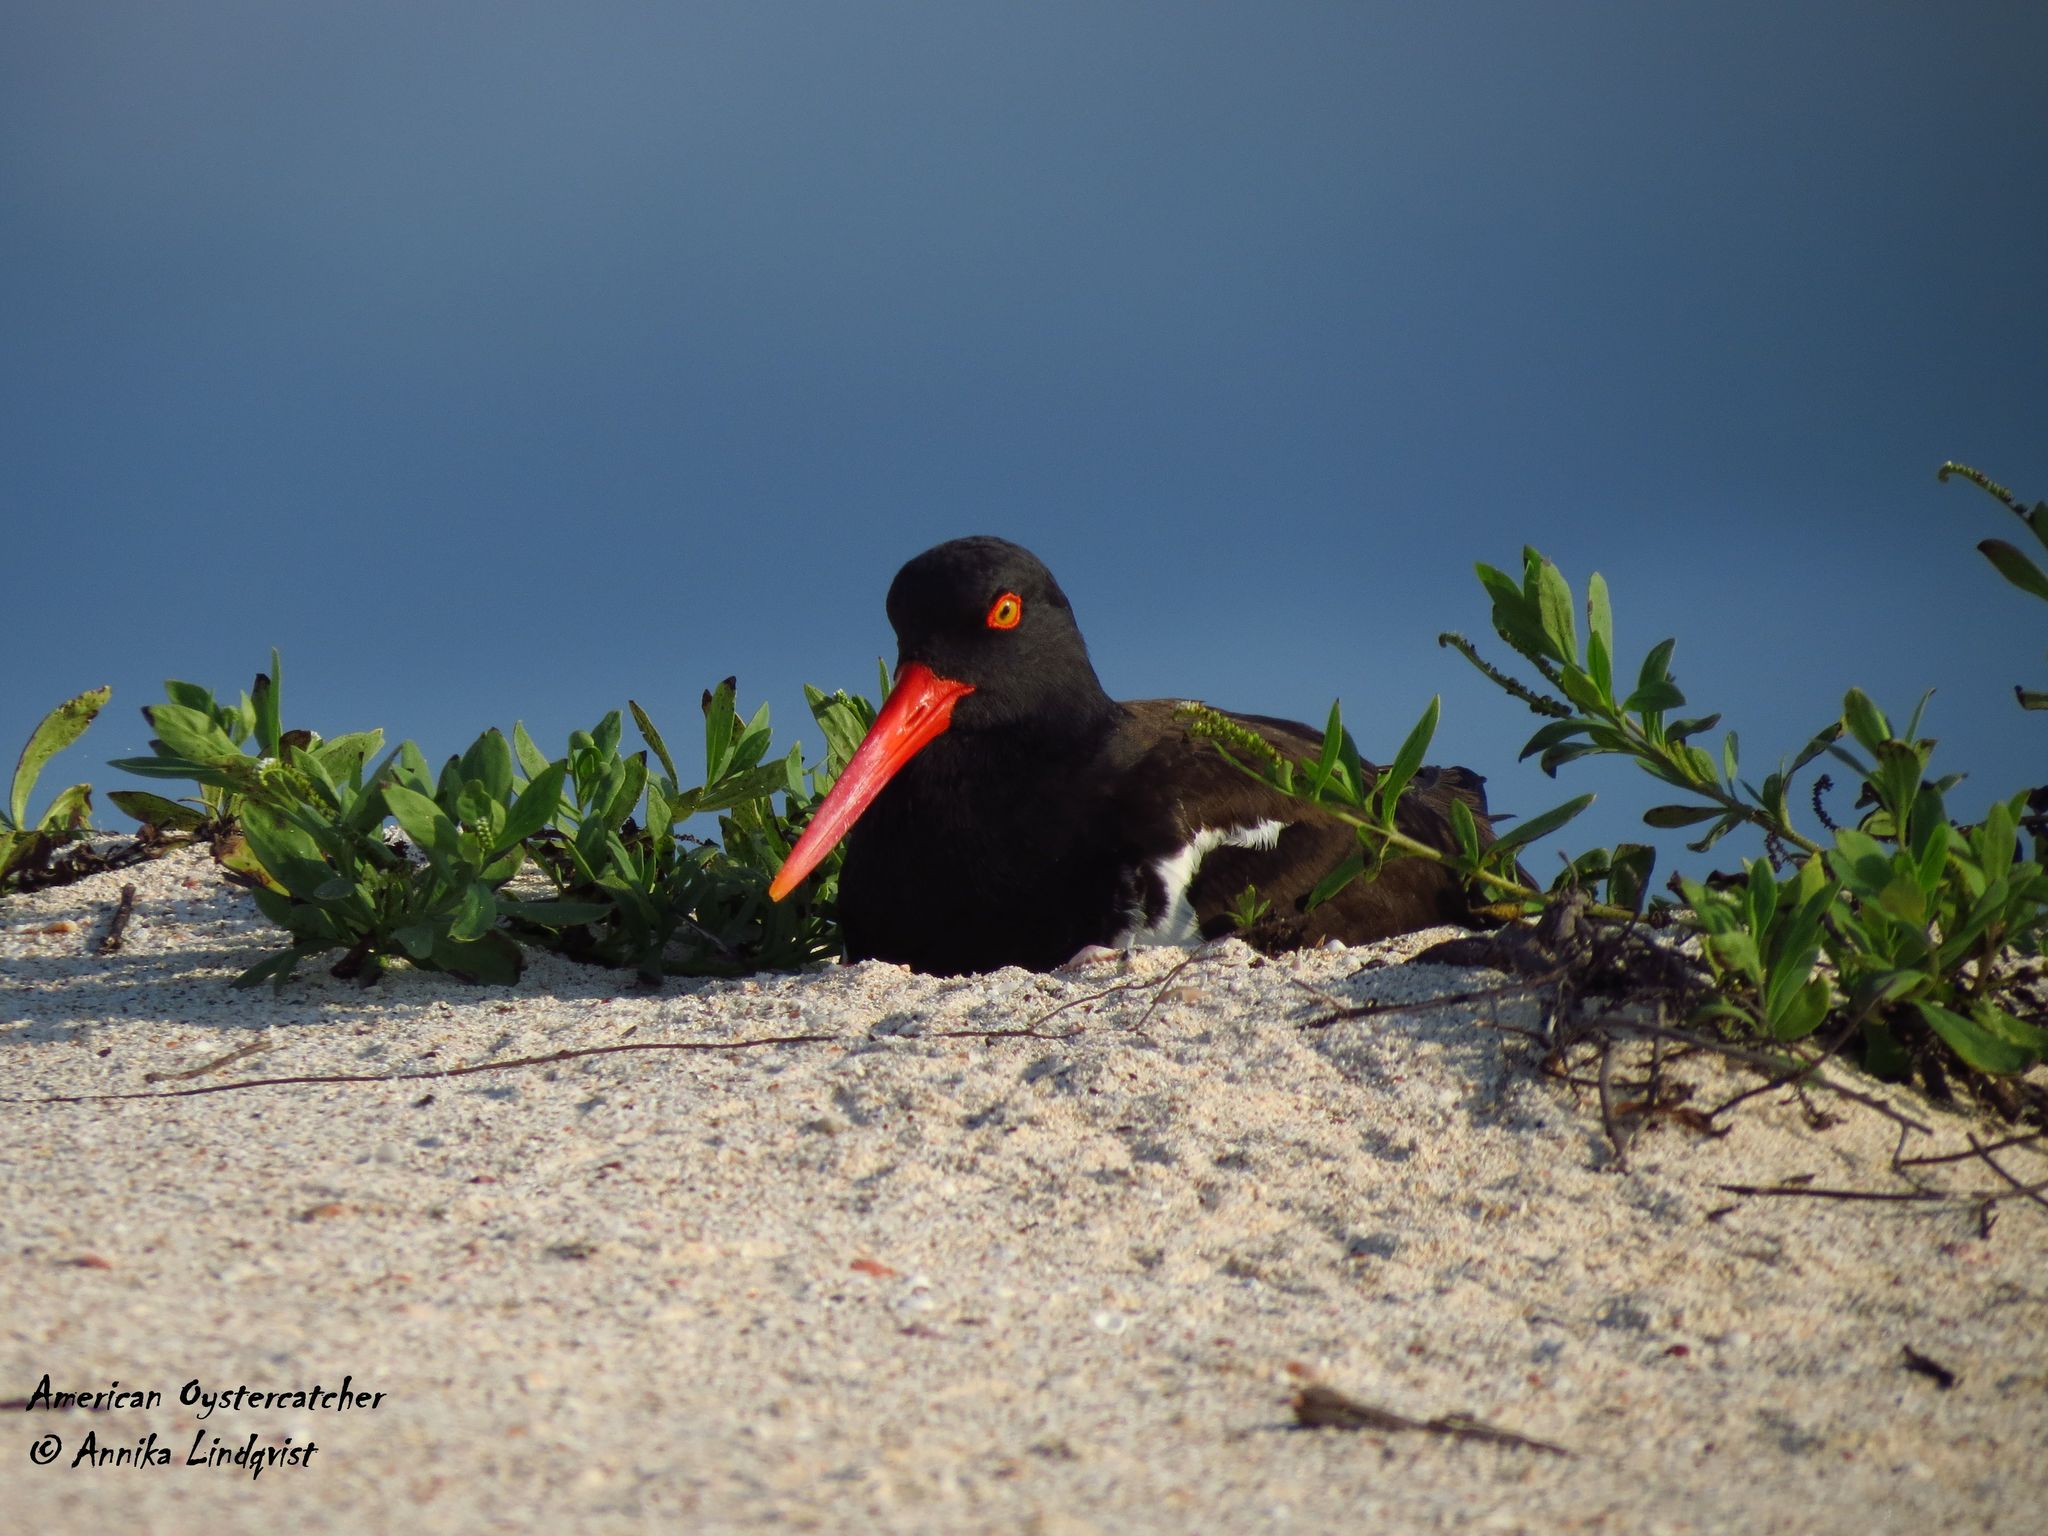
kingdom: Animalia
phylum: Chordata
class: Aves
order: Charadriiformes
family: Haematopodidae
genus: Haematopus
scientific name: Haematopus palliatus
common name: American oystercatcher
